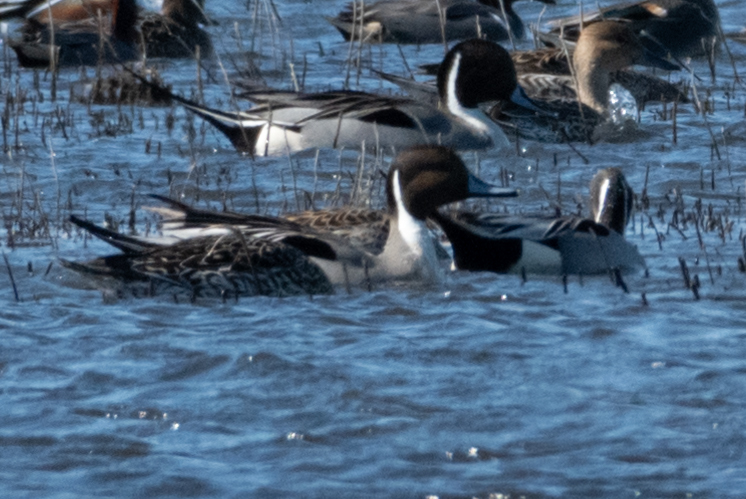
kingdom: Animalia
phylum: Chordata
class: Aves
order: Anseriformes
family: Anatidae
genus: Anas
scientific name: Anas acuta
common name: Northern pintail
